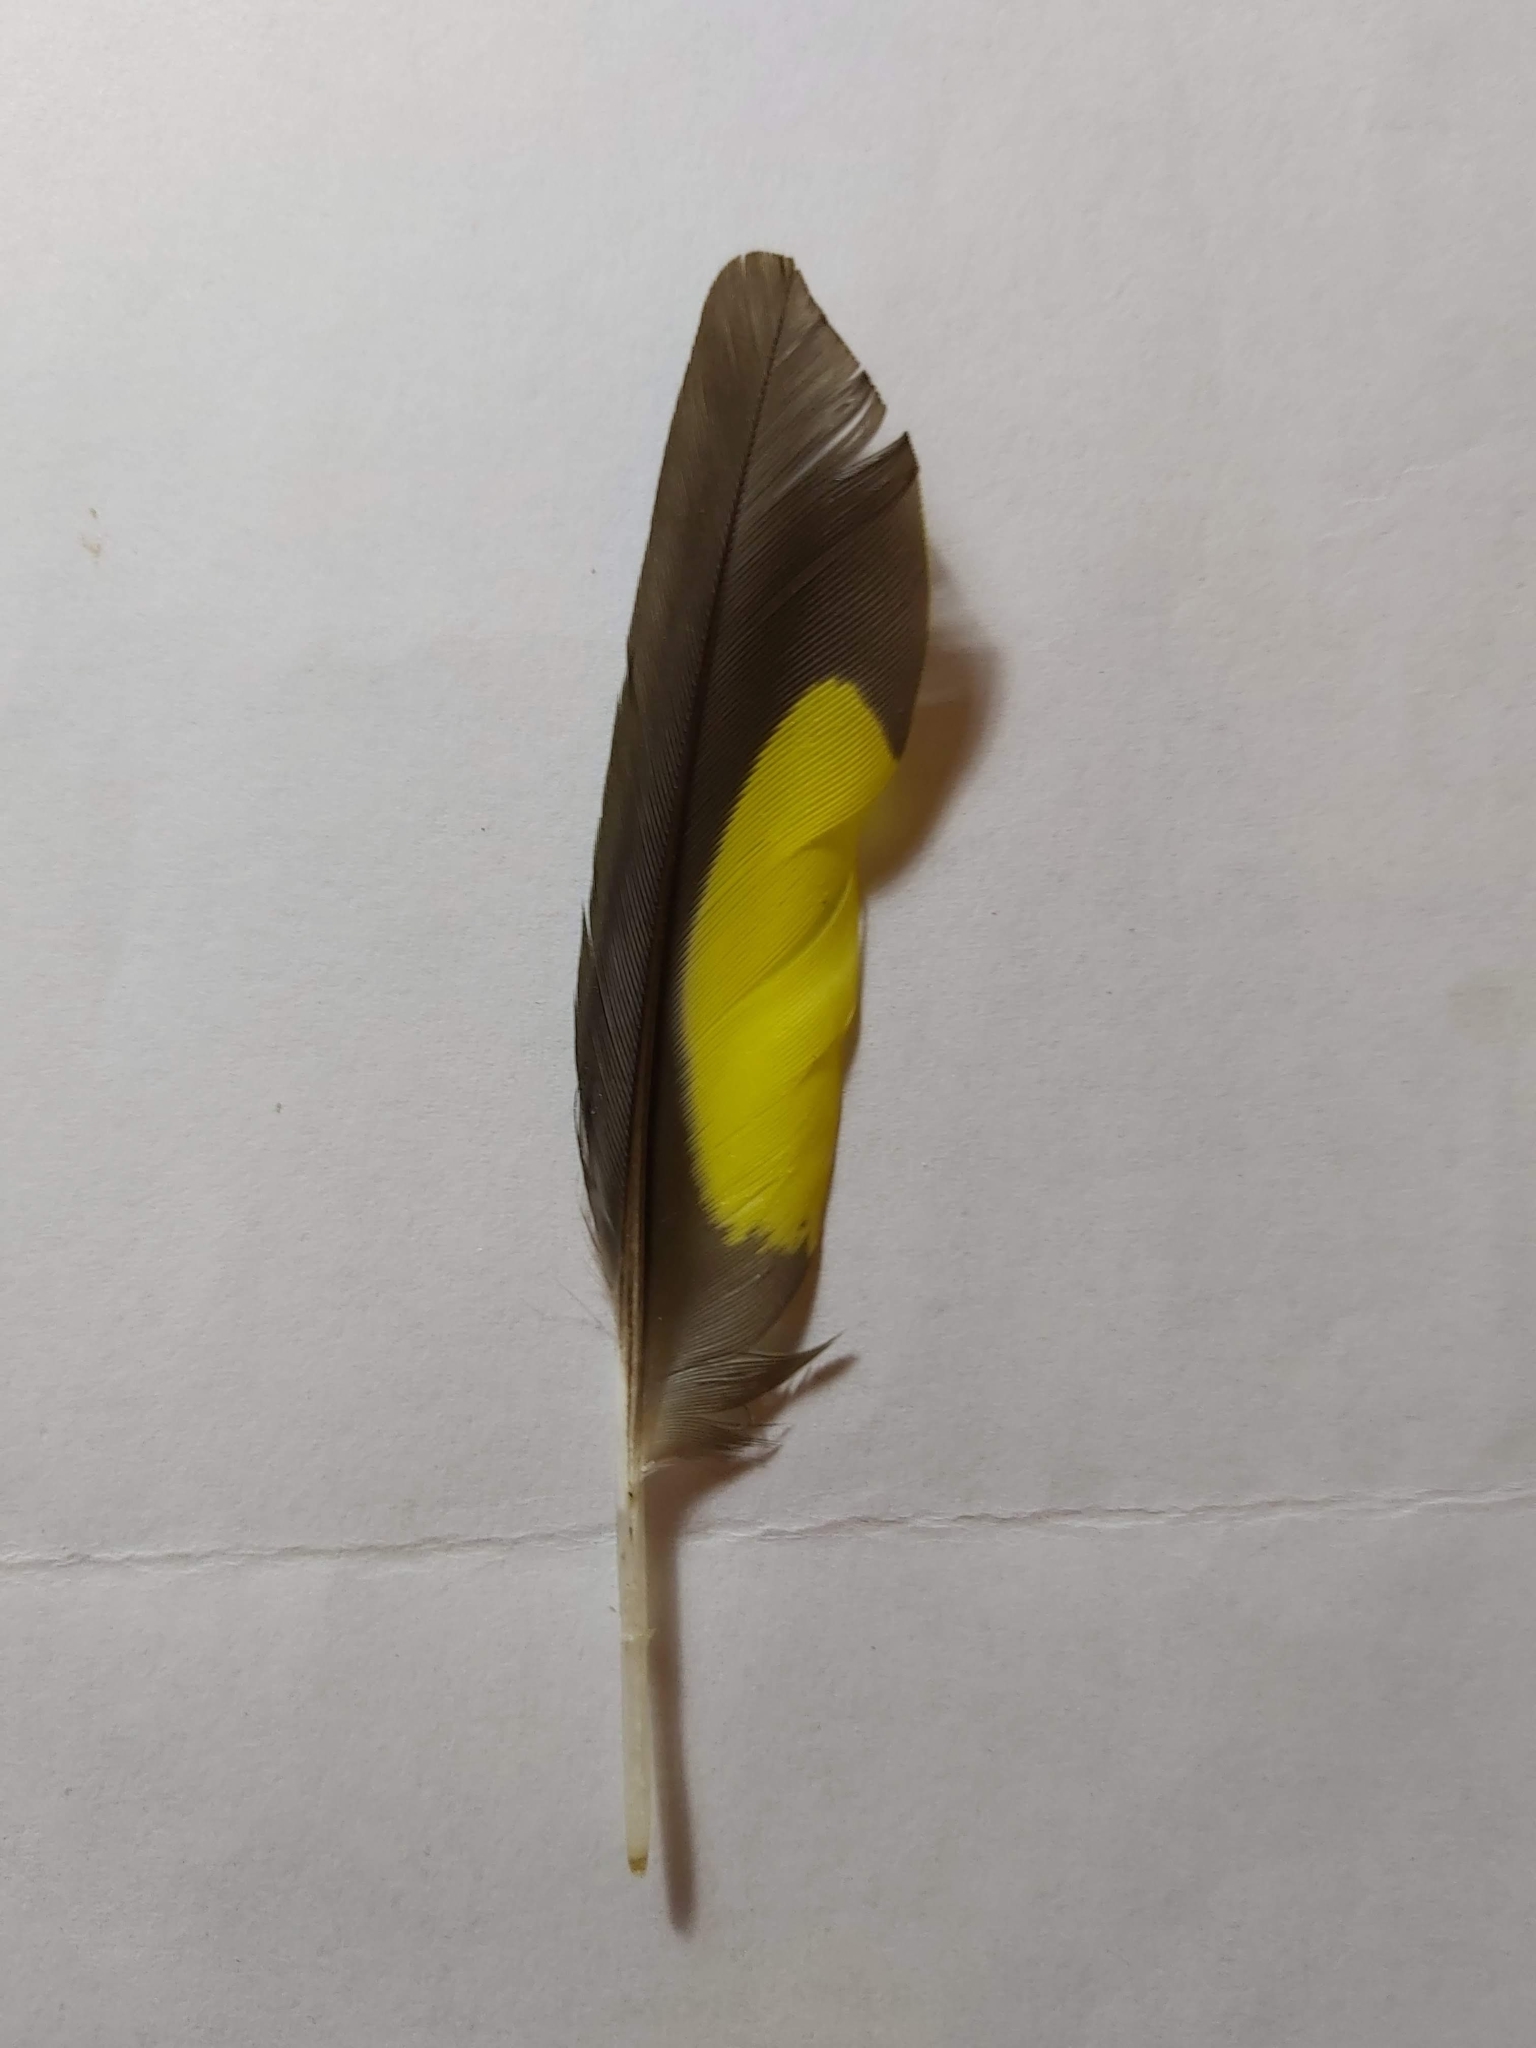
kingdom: Animalia
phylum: Chordata
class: Aves
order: Psittaciformes
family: Psittacidae
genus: Trichoglossus
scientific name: Trichoglossus haematodus
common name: Coconut lorikeet
